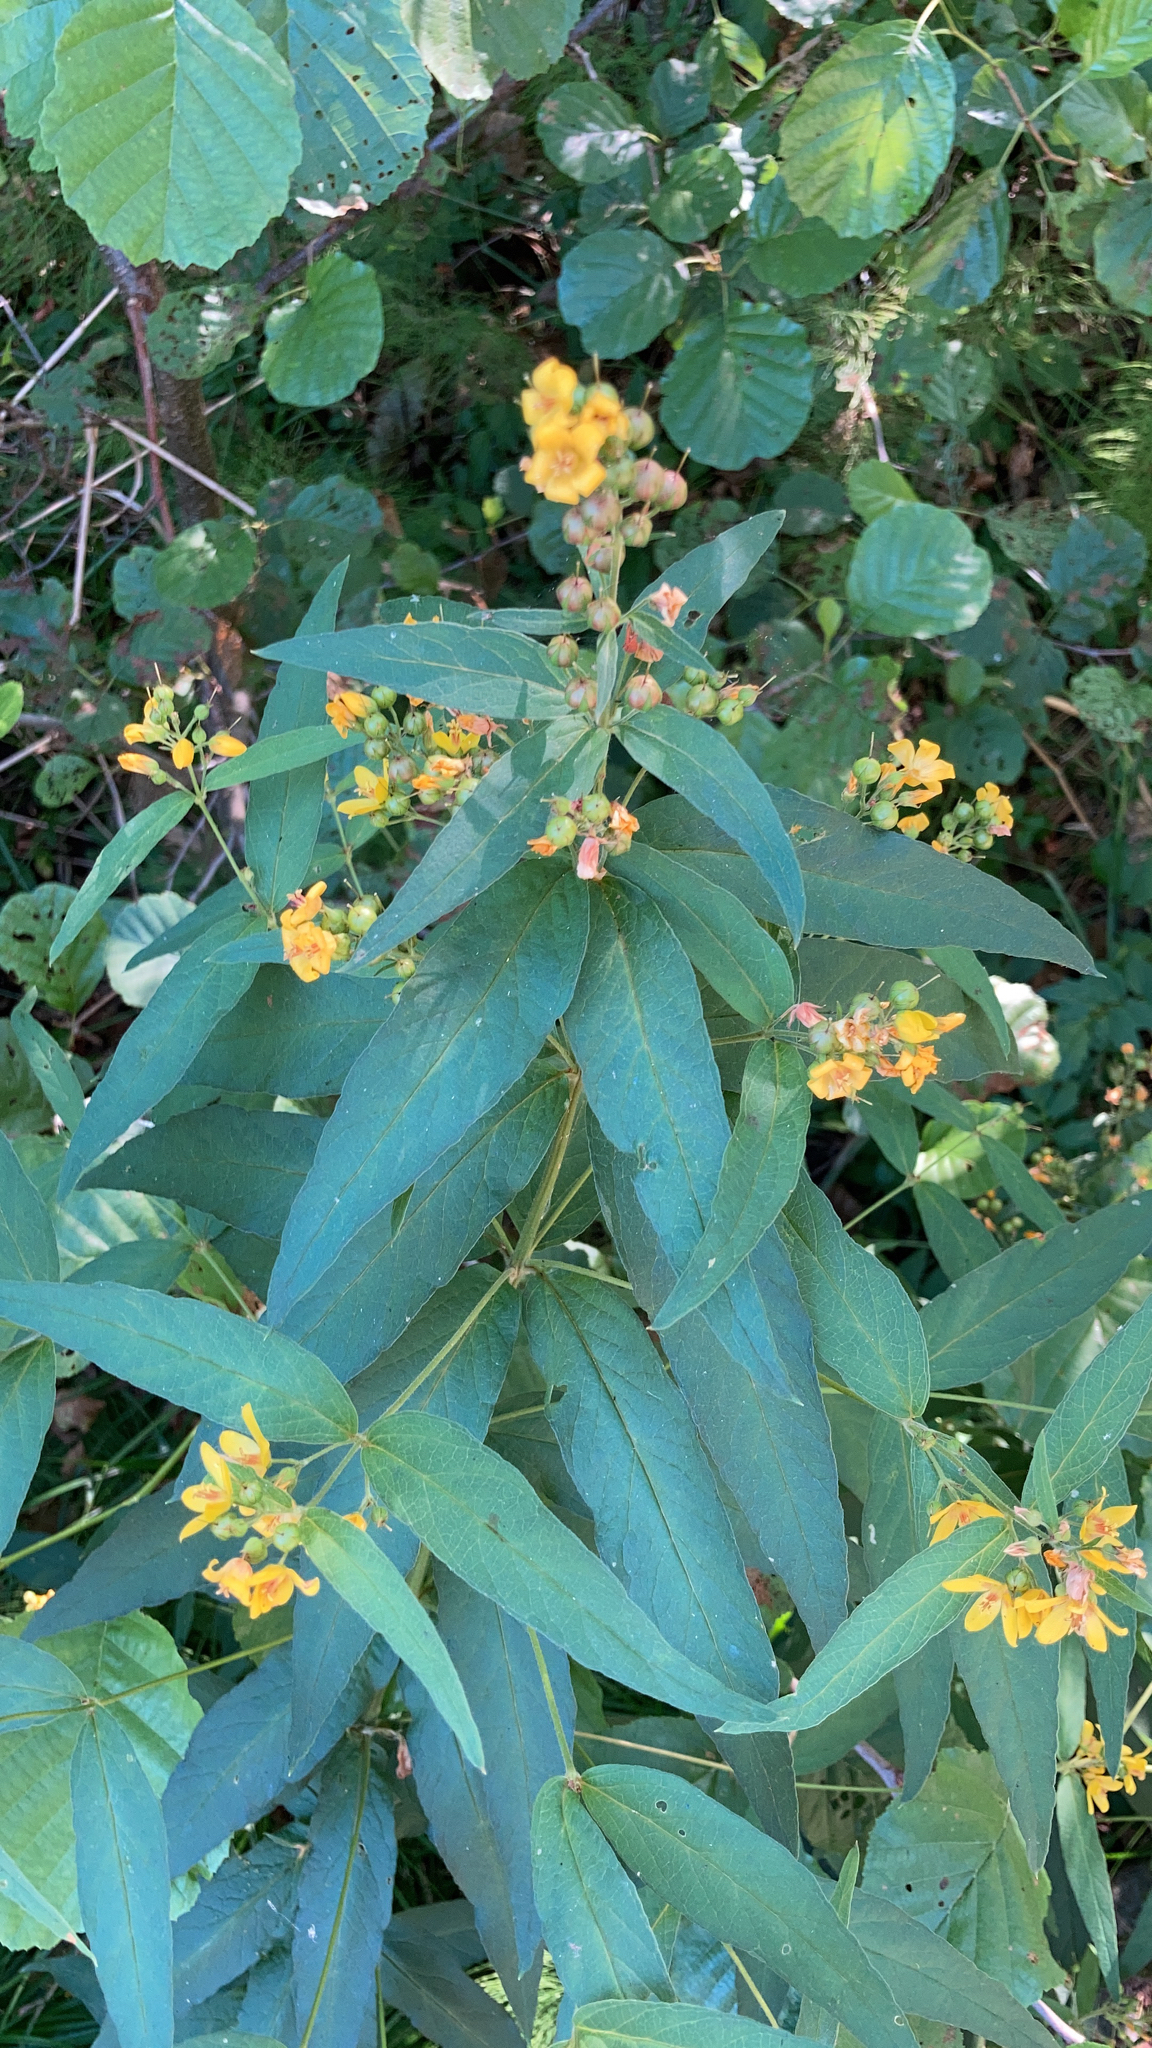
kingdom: Plantae
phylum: Tracheophyta
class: Magnoliopsida
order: Ericales
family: Primulaceae
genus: Lysimachia
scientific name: Lysimachia vulgaris
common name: Yellow loosestrife
